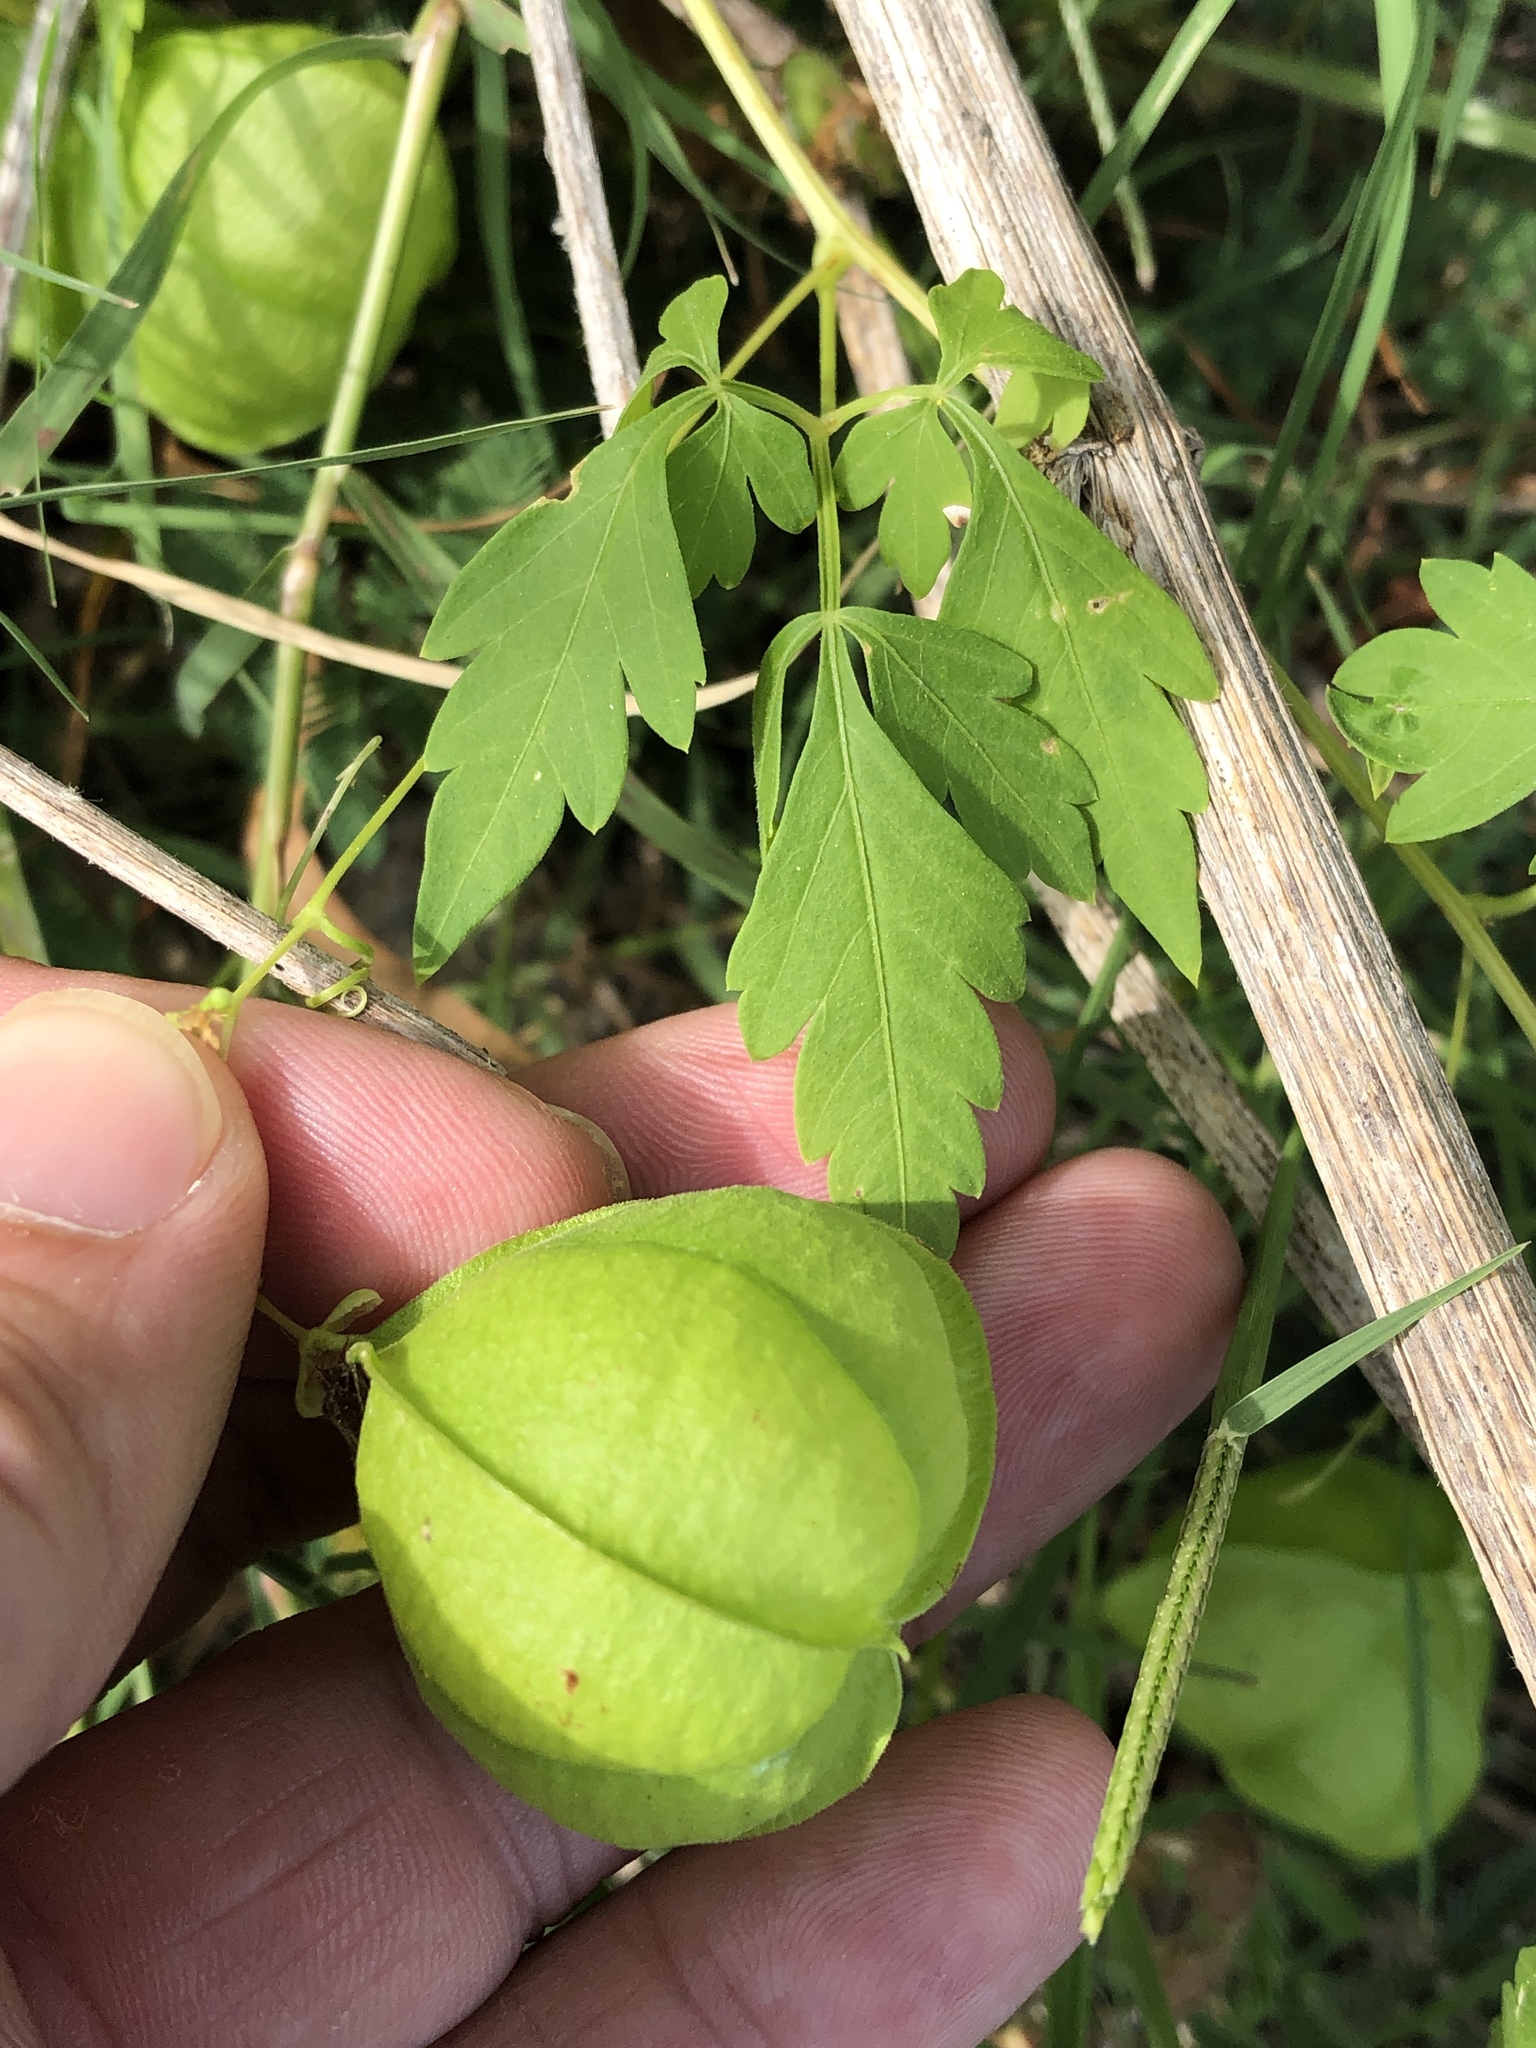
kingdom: Plantae
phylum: Tracheophyta
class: Magnoliopsida
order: Sapindales
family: Sapindaceae
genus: Cardiospermum
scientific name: Cardiospermum halicacabum
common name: Balloon vine
